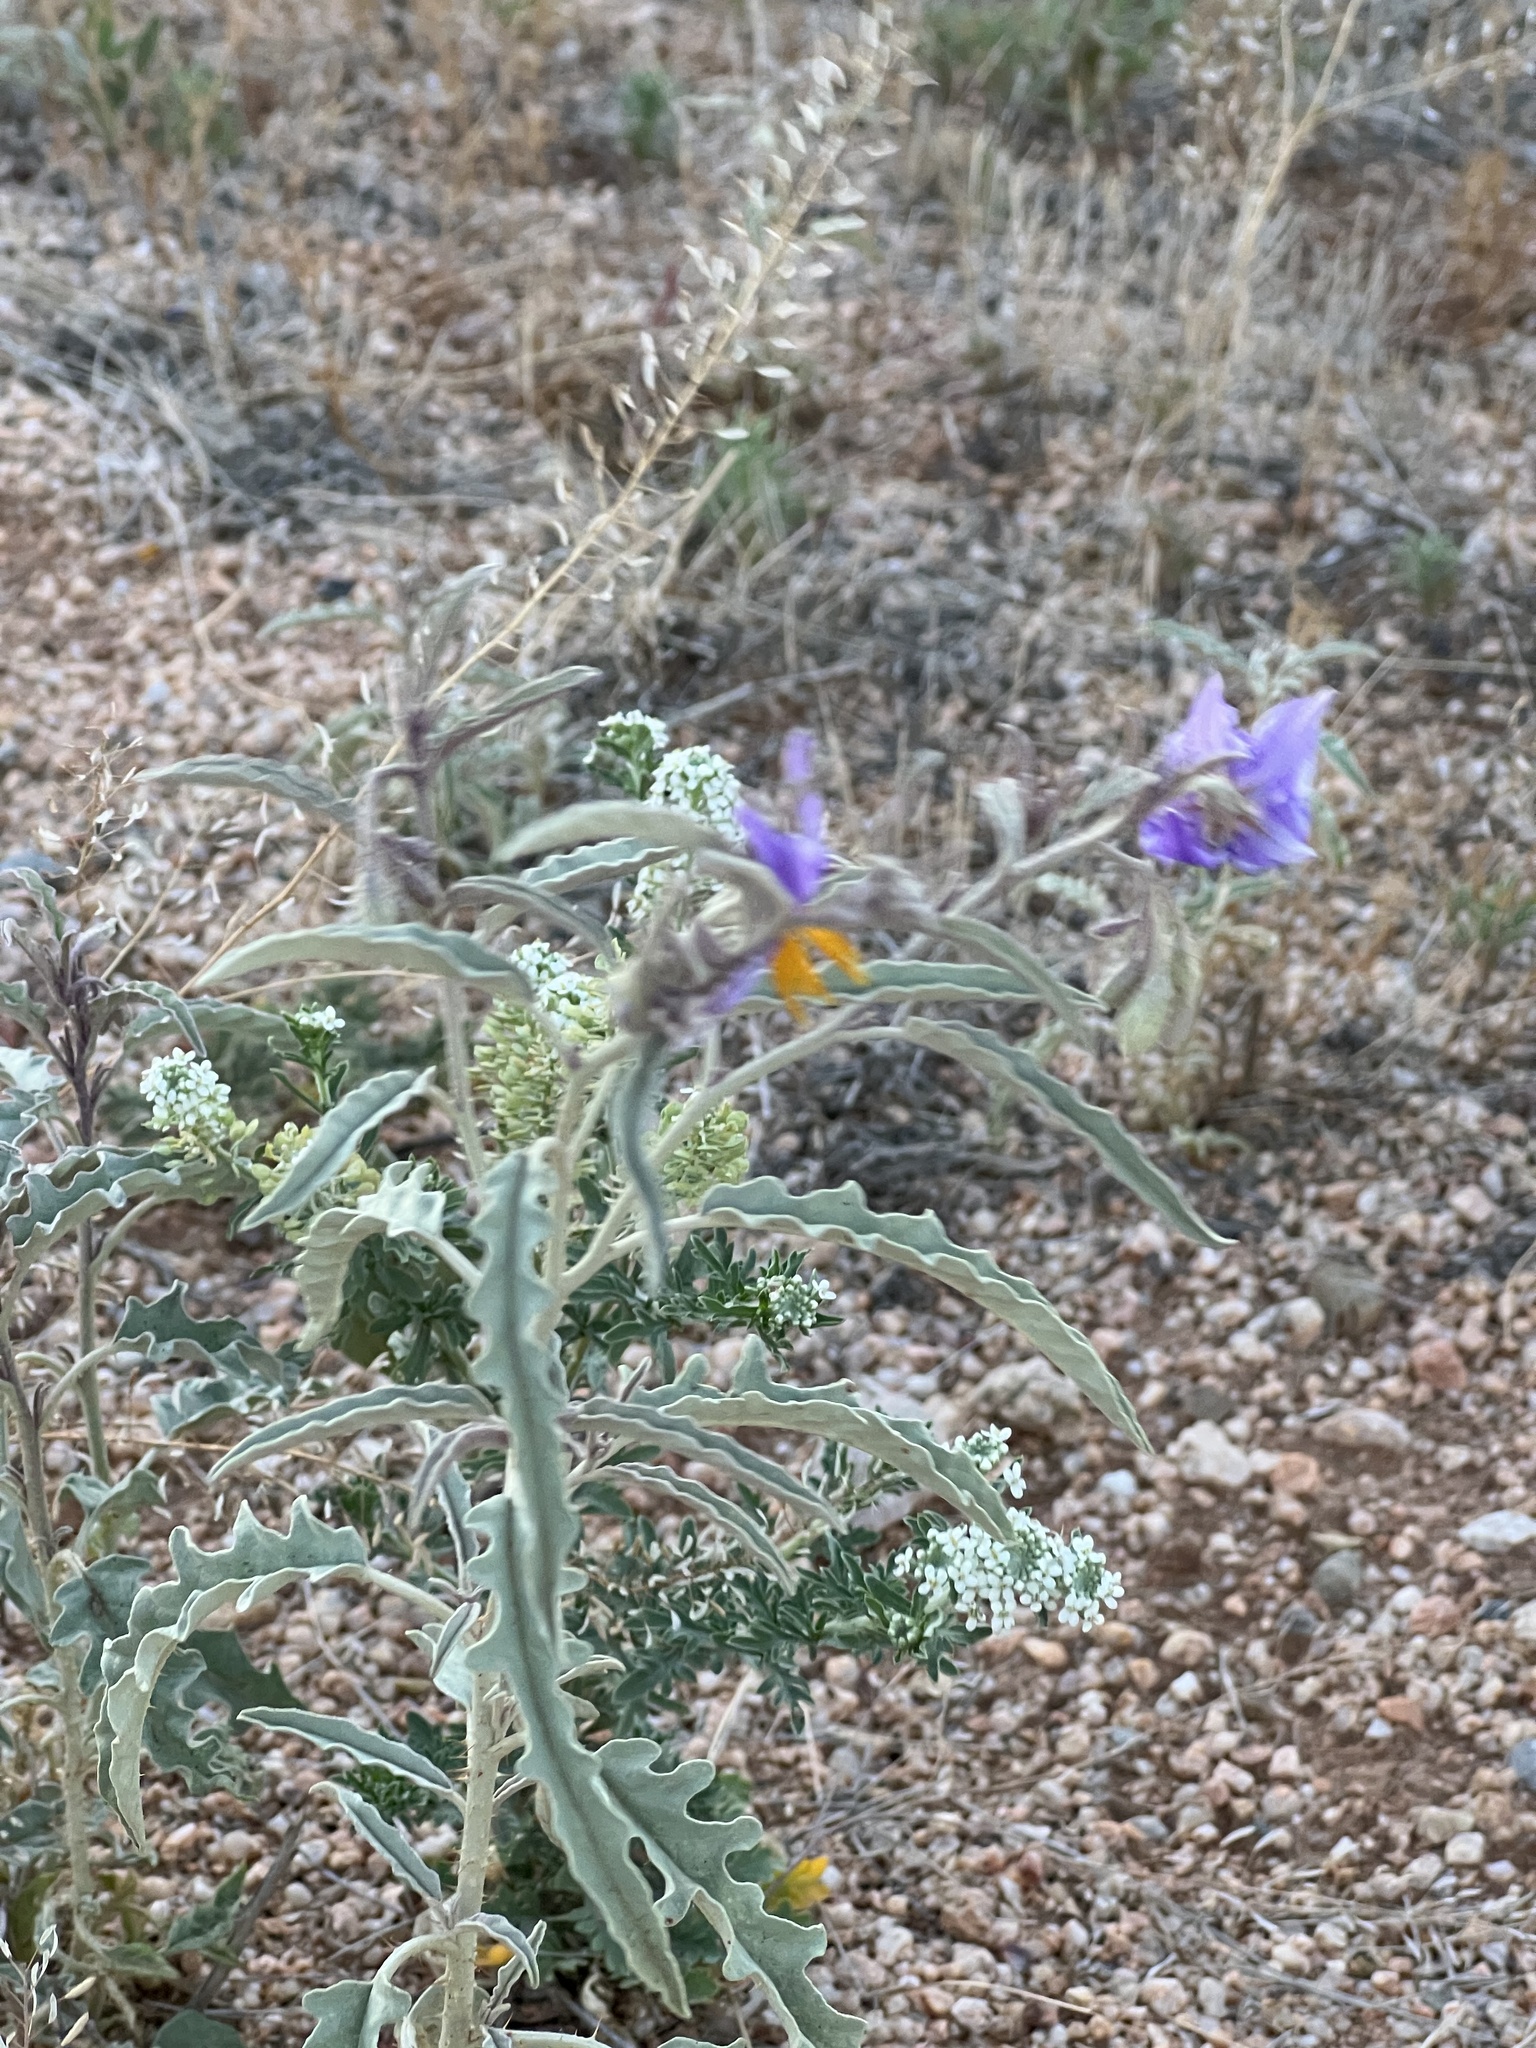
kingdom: Plantae
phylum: Tracheophyta
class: Magnoliopsida
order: Solanales
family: Solanaceae
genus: Solanum
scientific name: Solanum elaeagnifolium
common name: Silverleaf nightshade
